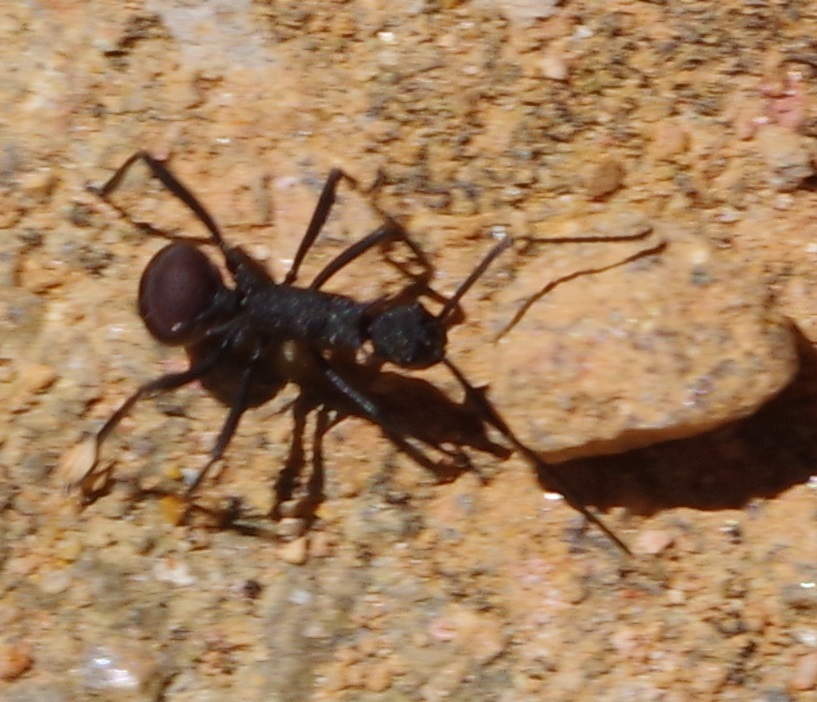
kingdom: Animalia
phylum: Arthropoda
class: Insecta
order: Hymenoptera
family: Formicidae
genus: Polyrhachis
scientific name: Polyrhachis armata
